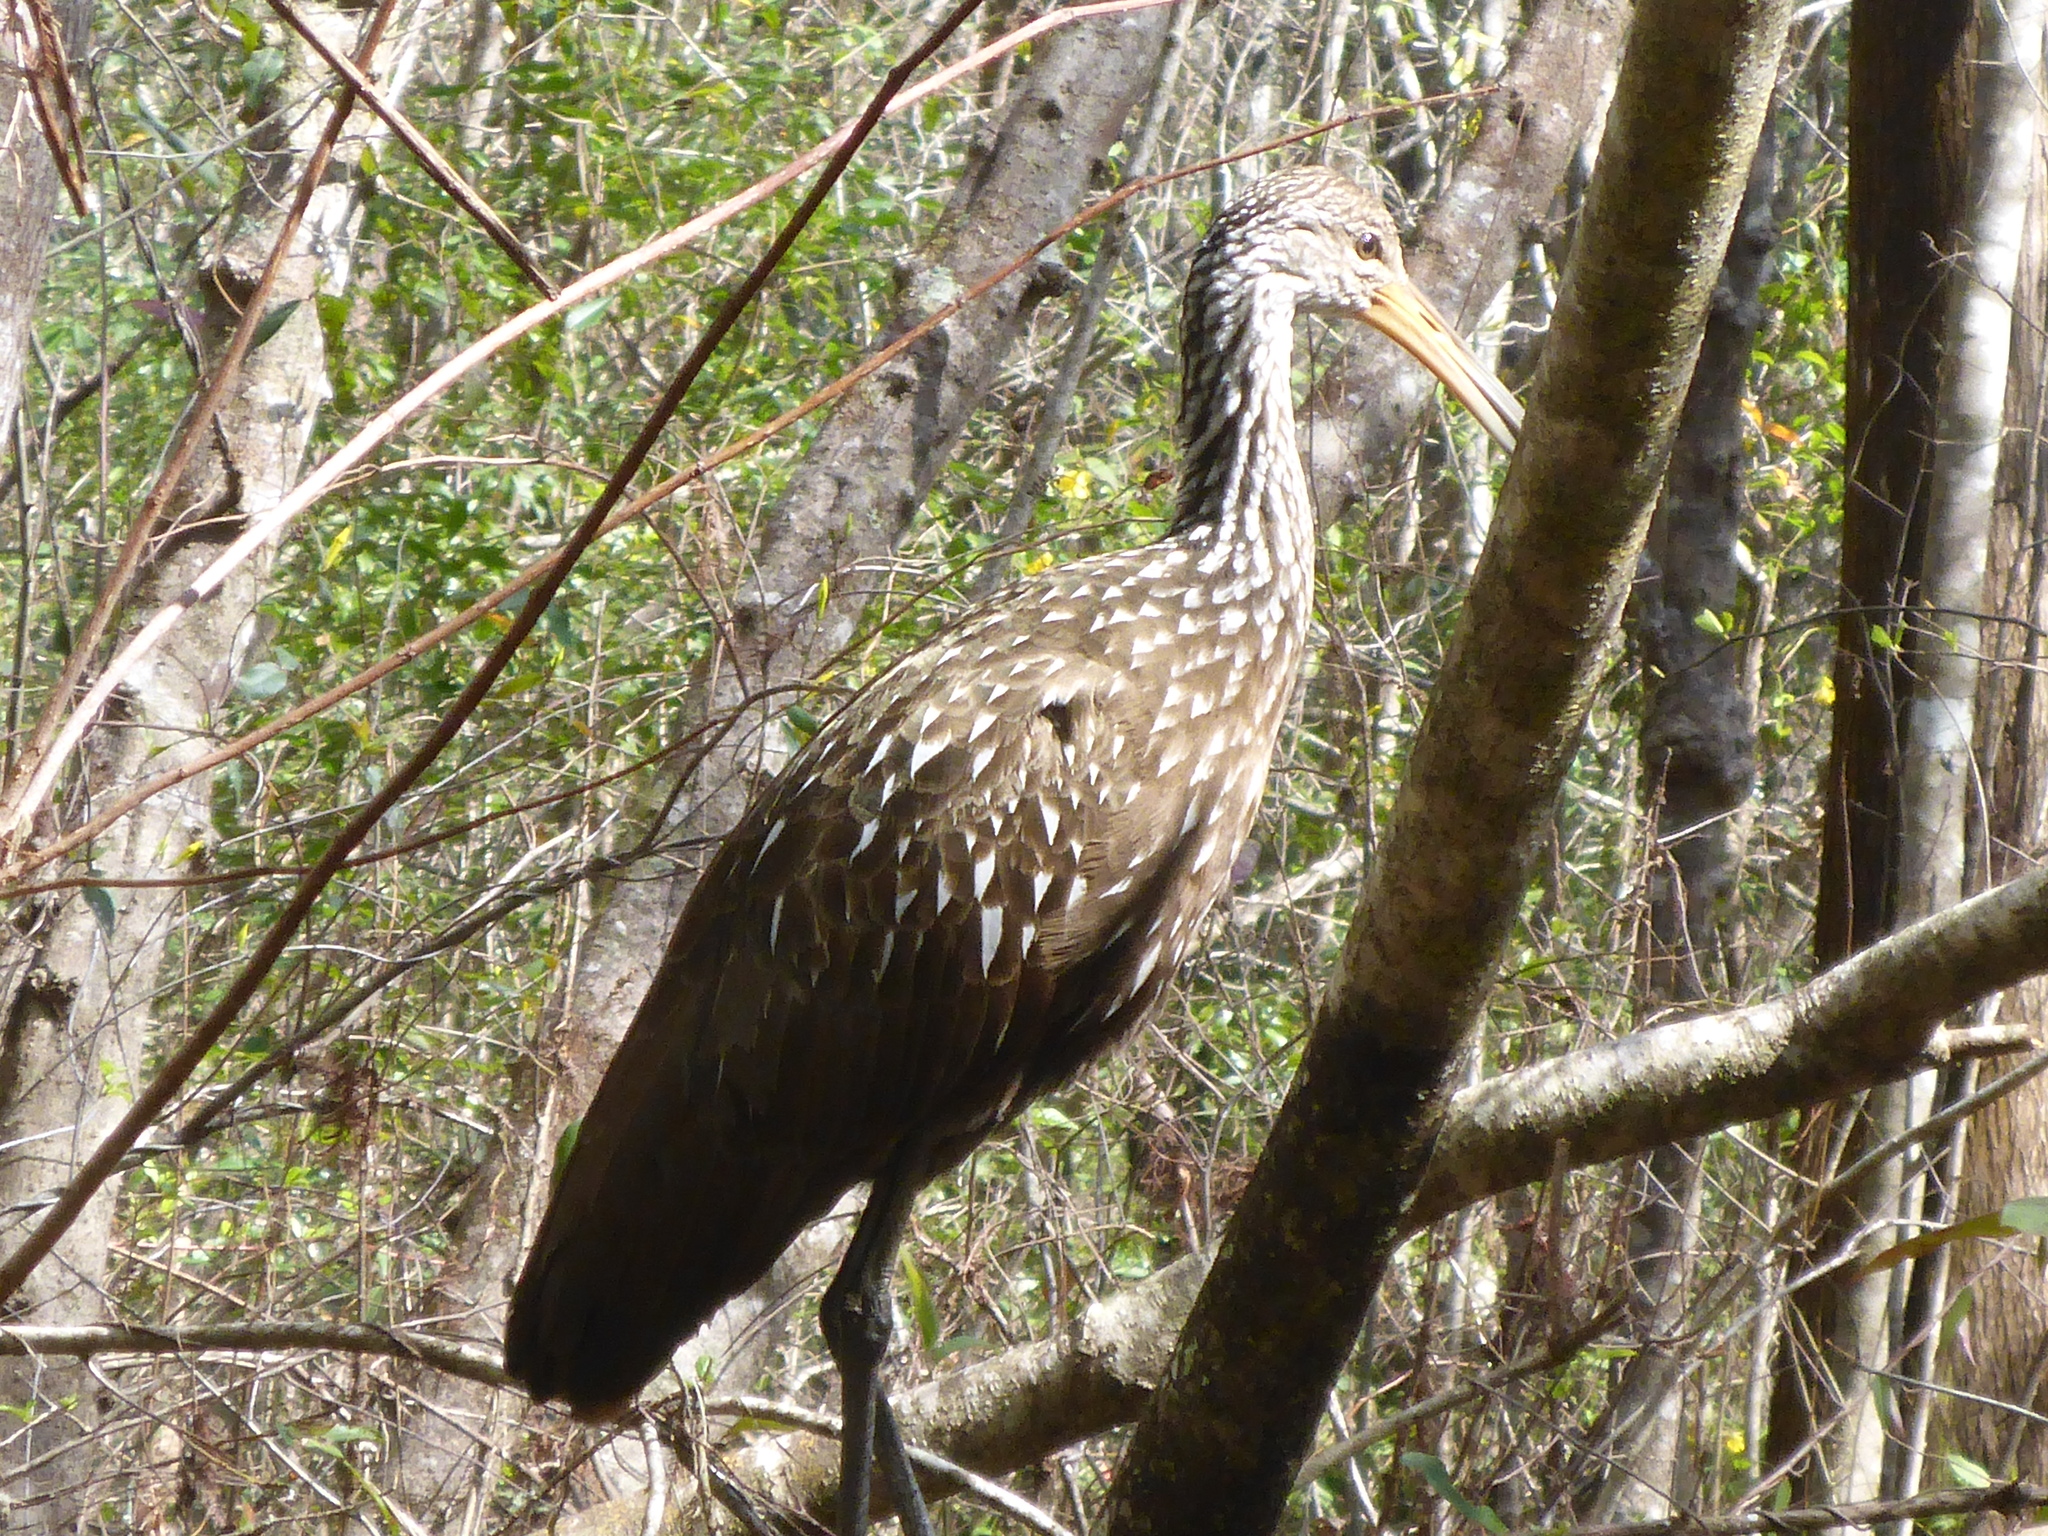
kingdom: Animalia
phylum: Chordata
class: Aves
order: Gruiformes
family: Aramidae
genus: Aramus
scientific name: Aramus guarauna
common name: Limpkin
